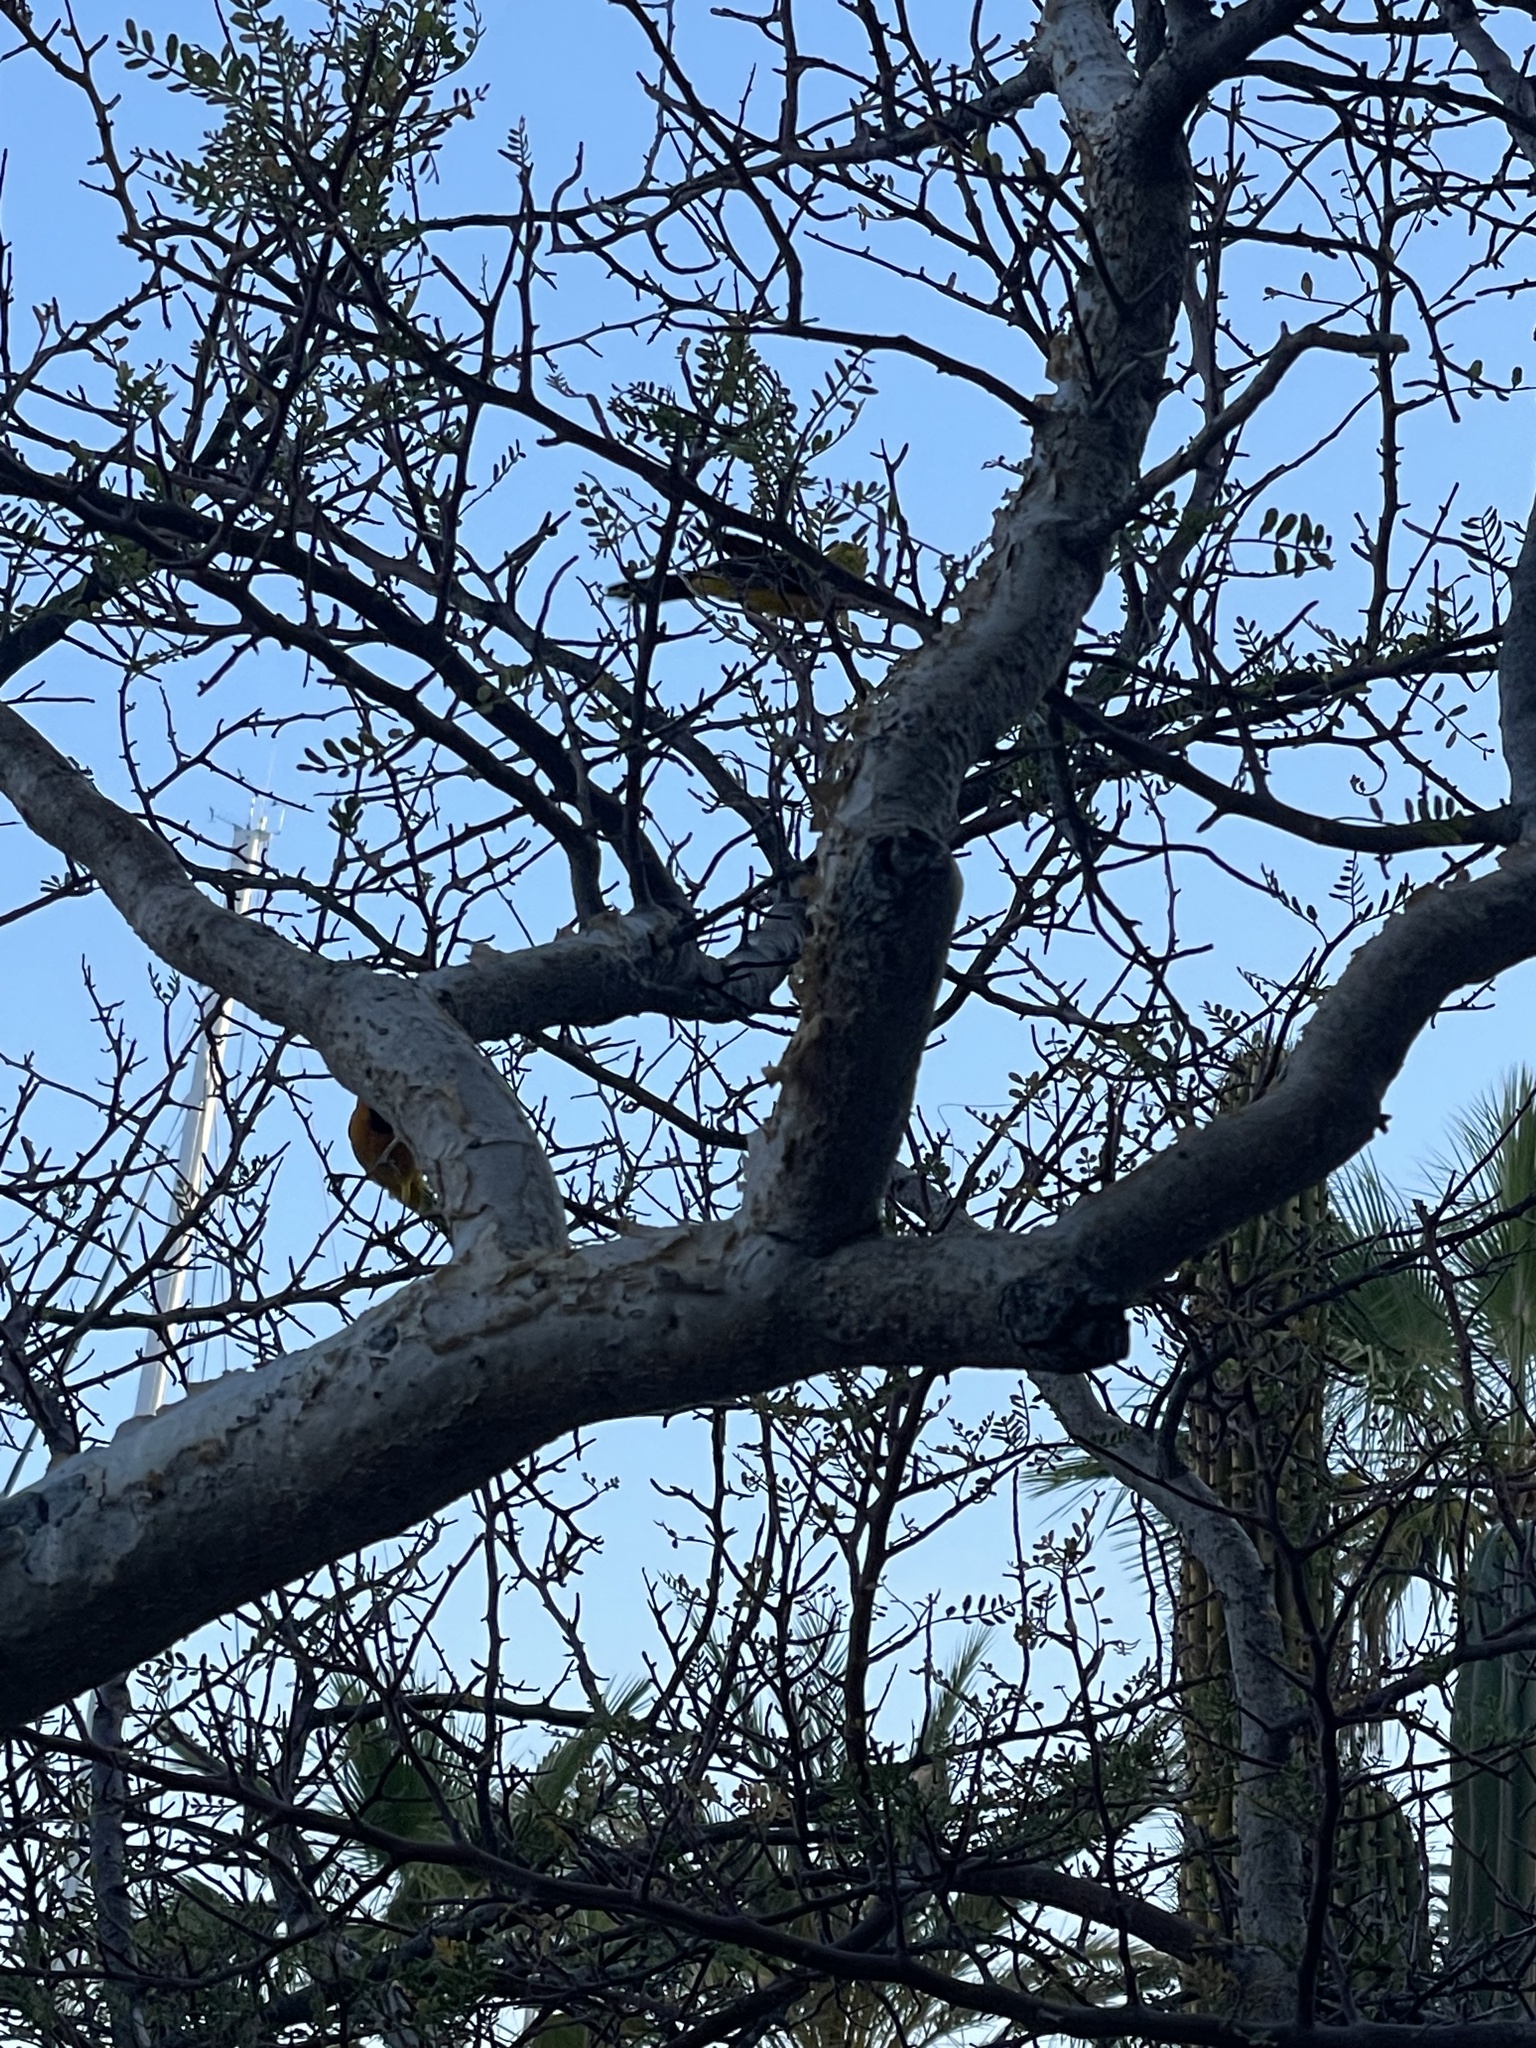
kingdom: Animalia
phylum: Chordata
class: Aves
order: Passeriformes
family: Icteridae
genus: Icterus
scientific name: Icterus cucullatus
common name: Hooded oriole
